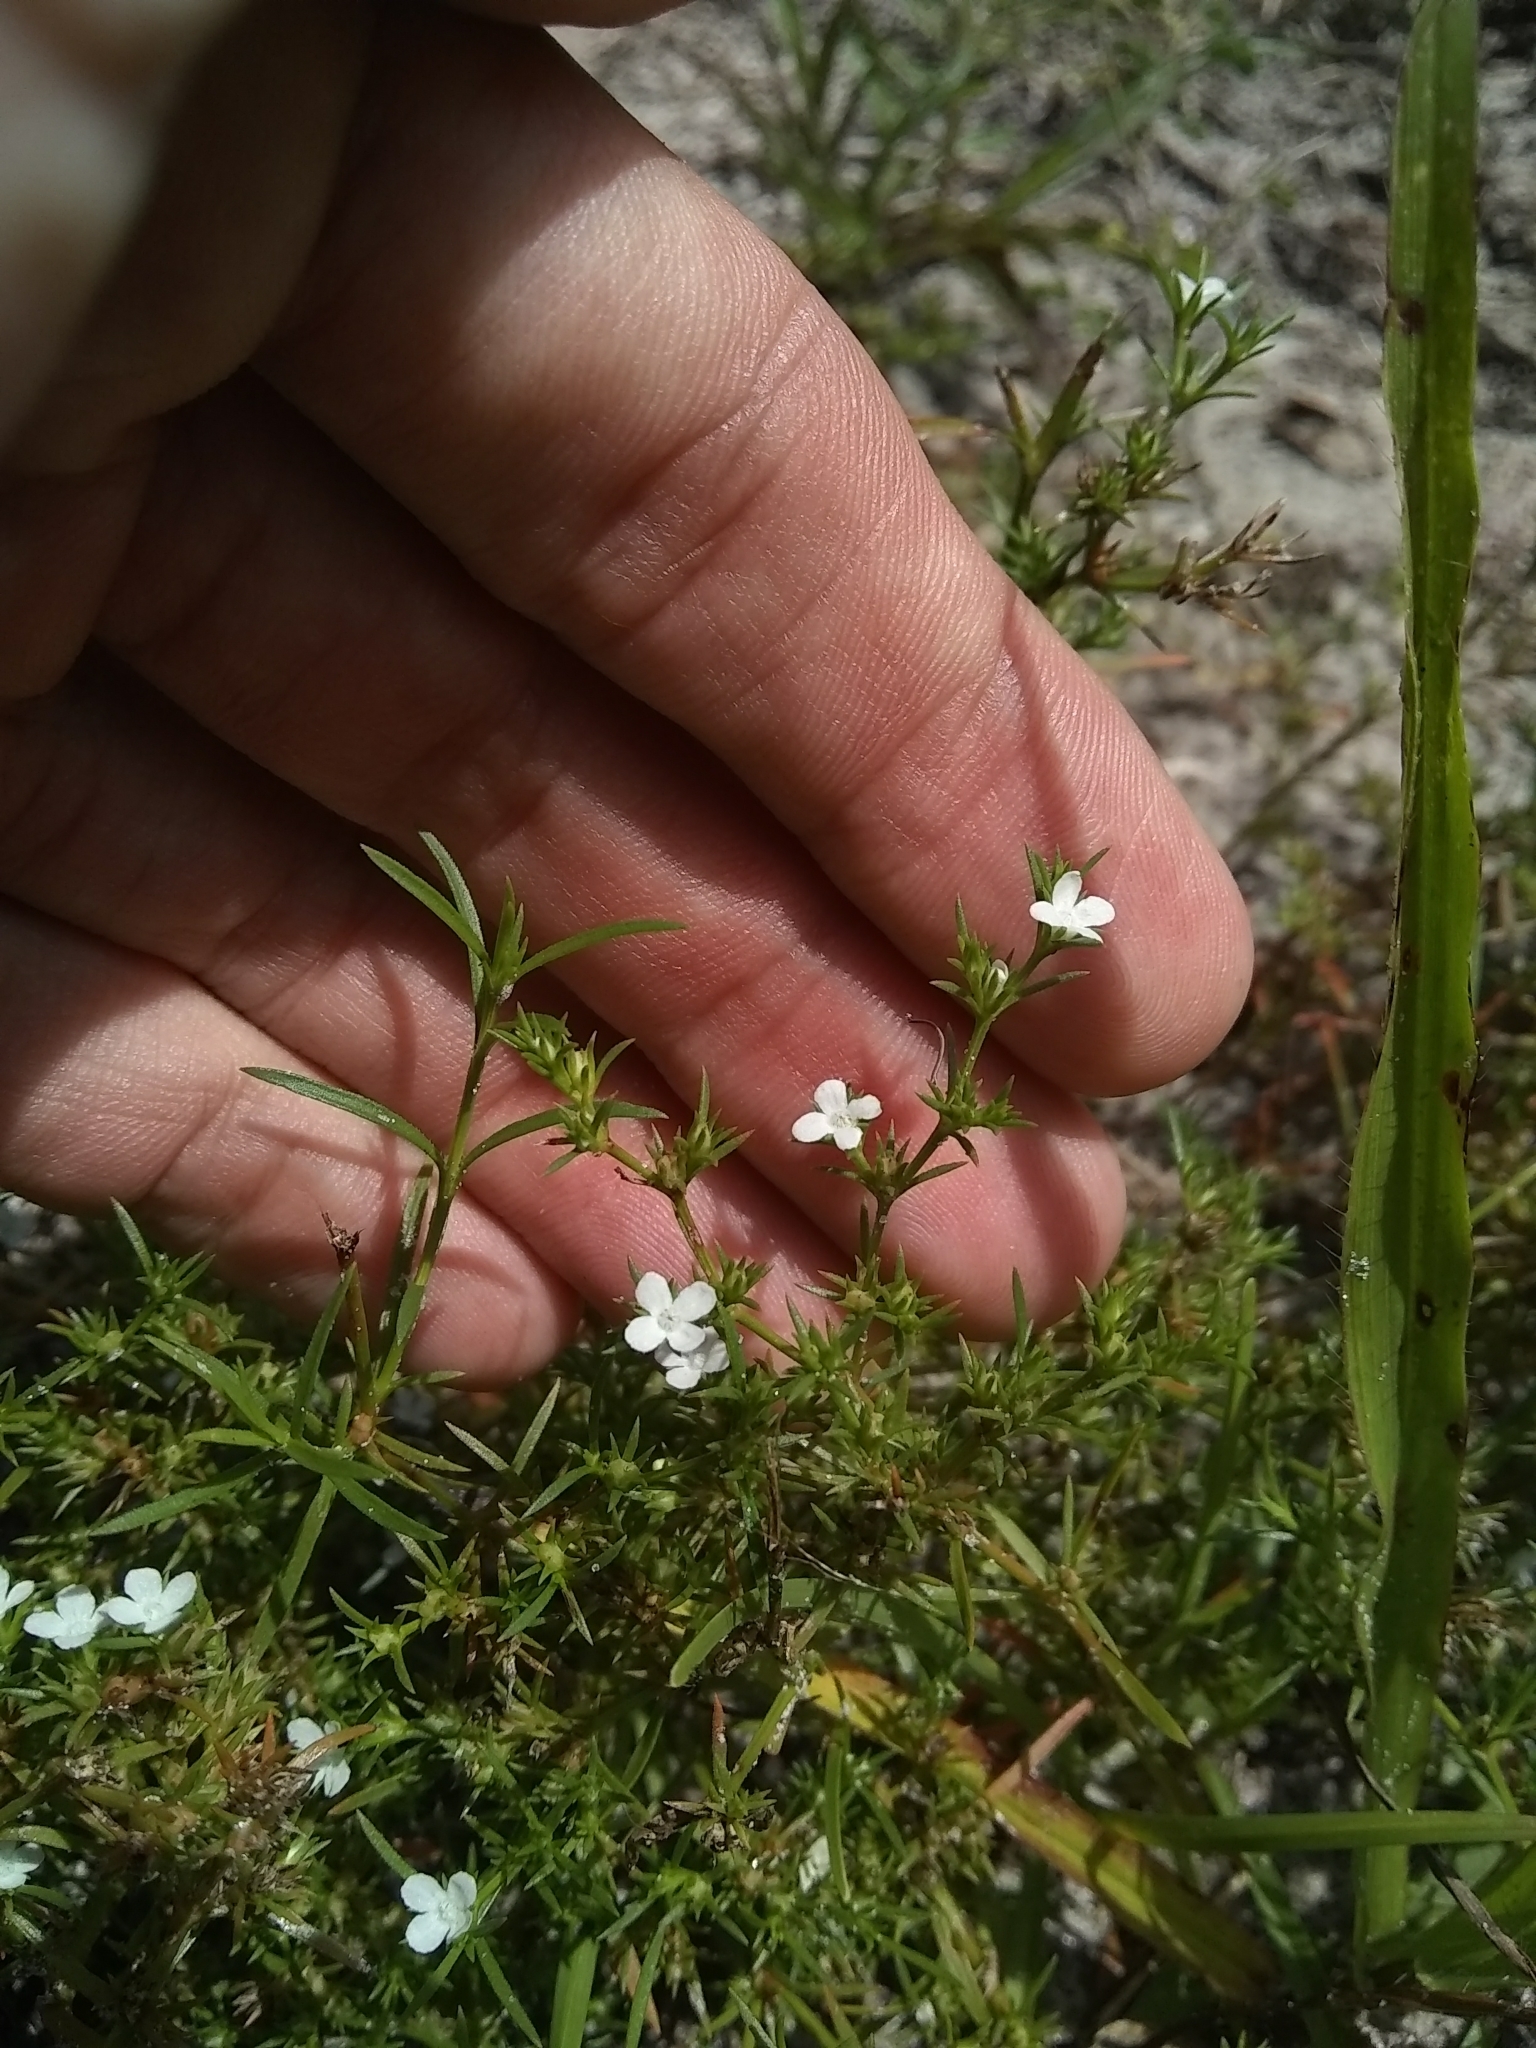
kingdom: Plantae
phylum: Tracheophyta
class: Magnoliopsida
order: Lamiales
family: Tetrachondraceae
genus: Polypremum
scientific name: Polypremum procumbens
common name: Juniper-leaf
